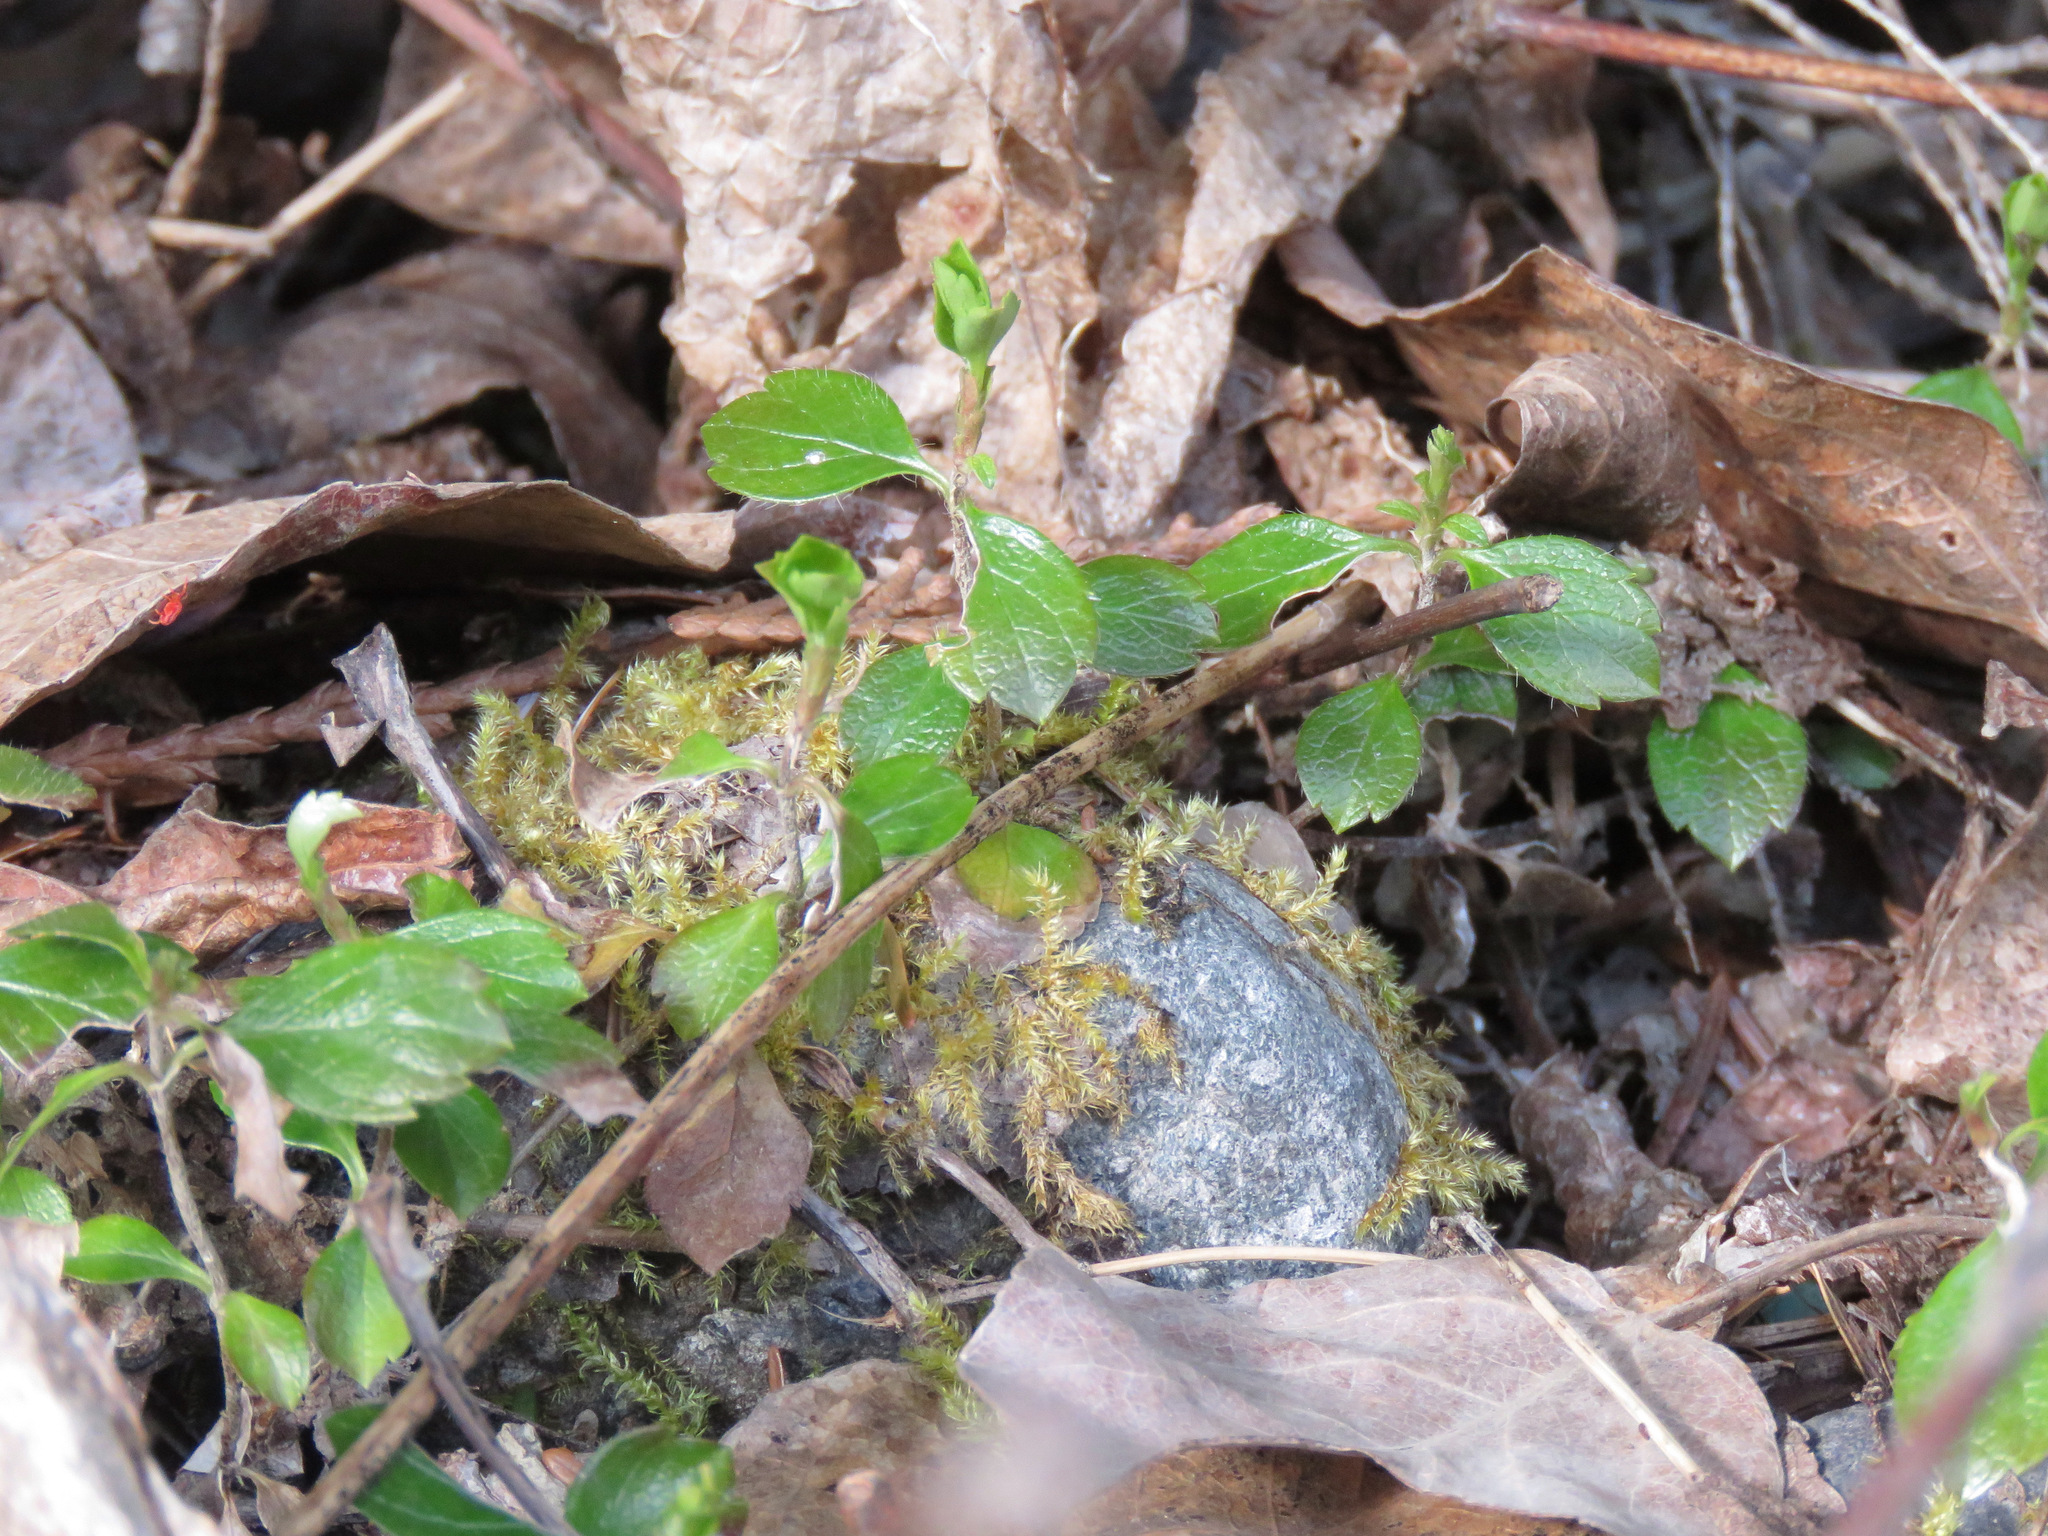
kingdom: Plantae
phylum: Tracheophyta
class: Magnoliopsida
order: Dipsacales
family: Caprifoliaceae
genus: Linnaea
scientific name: Linnaea borealis
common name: Twinflower
